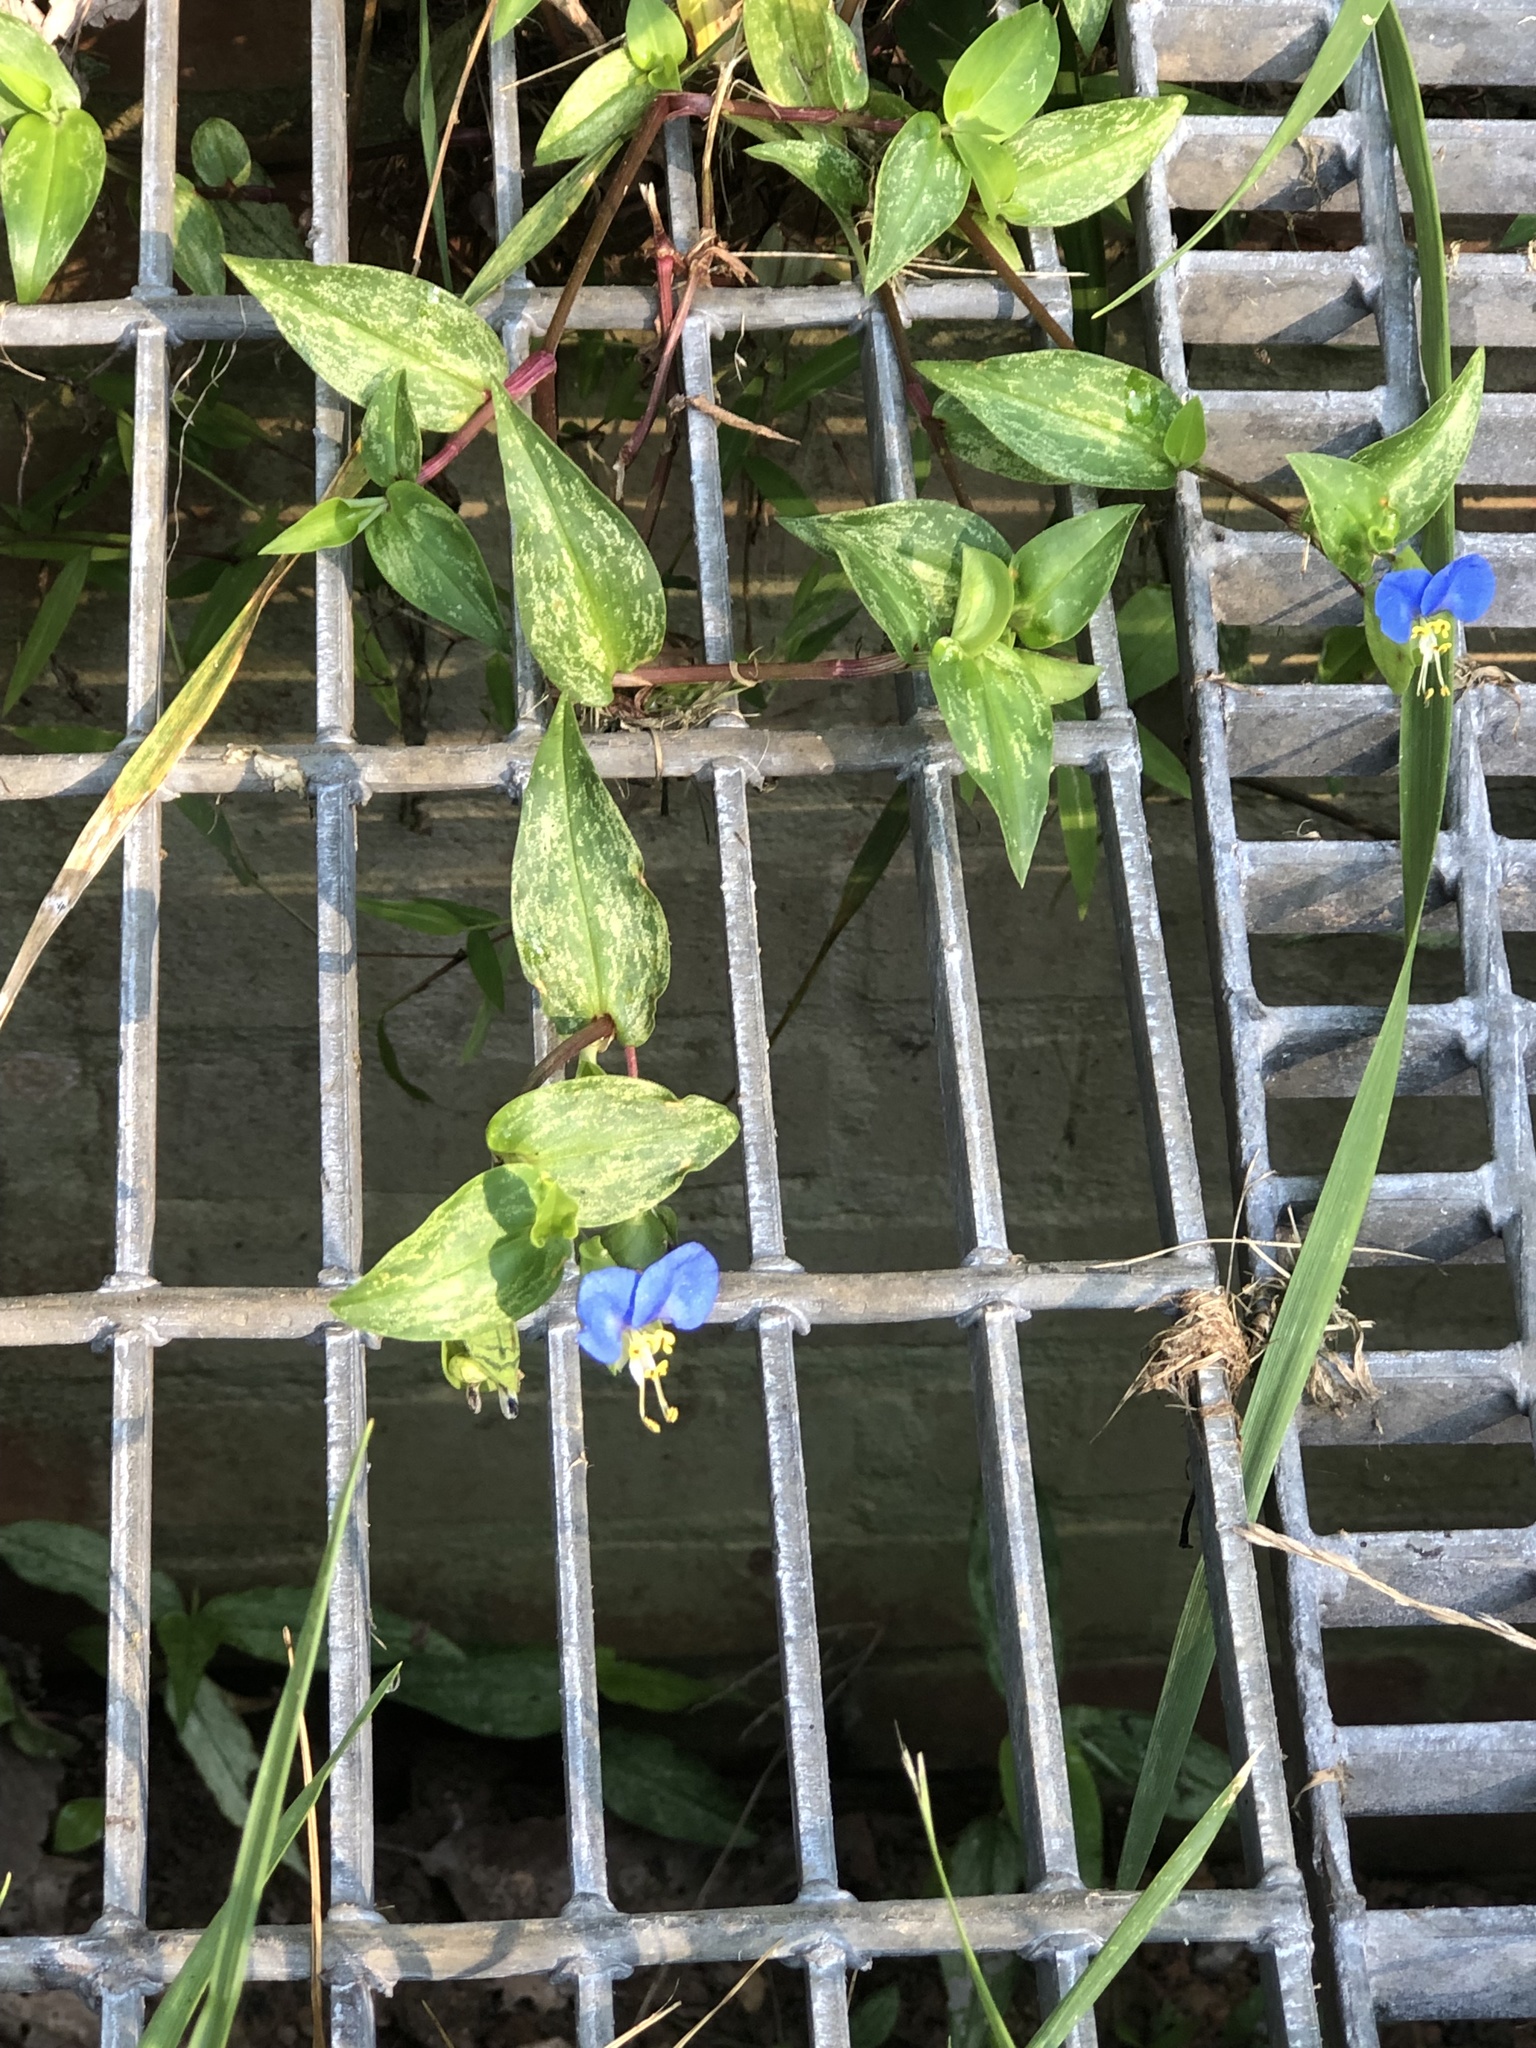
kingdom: Plantae
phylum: Tracheophyta
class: Liliopsida
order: Commelinales
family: Commelinaceae
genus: Commelina
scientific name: Commelina communis
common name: Asiatic dayflower
